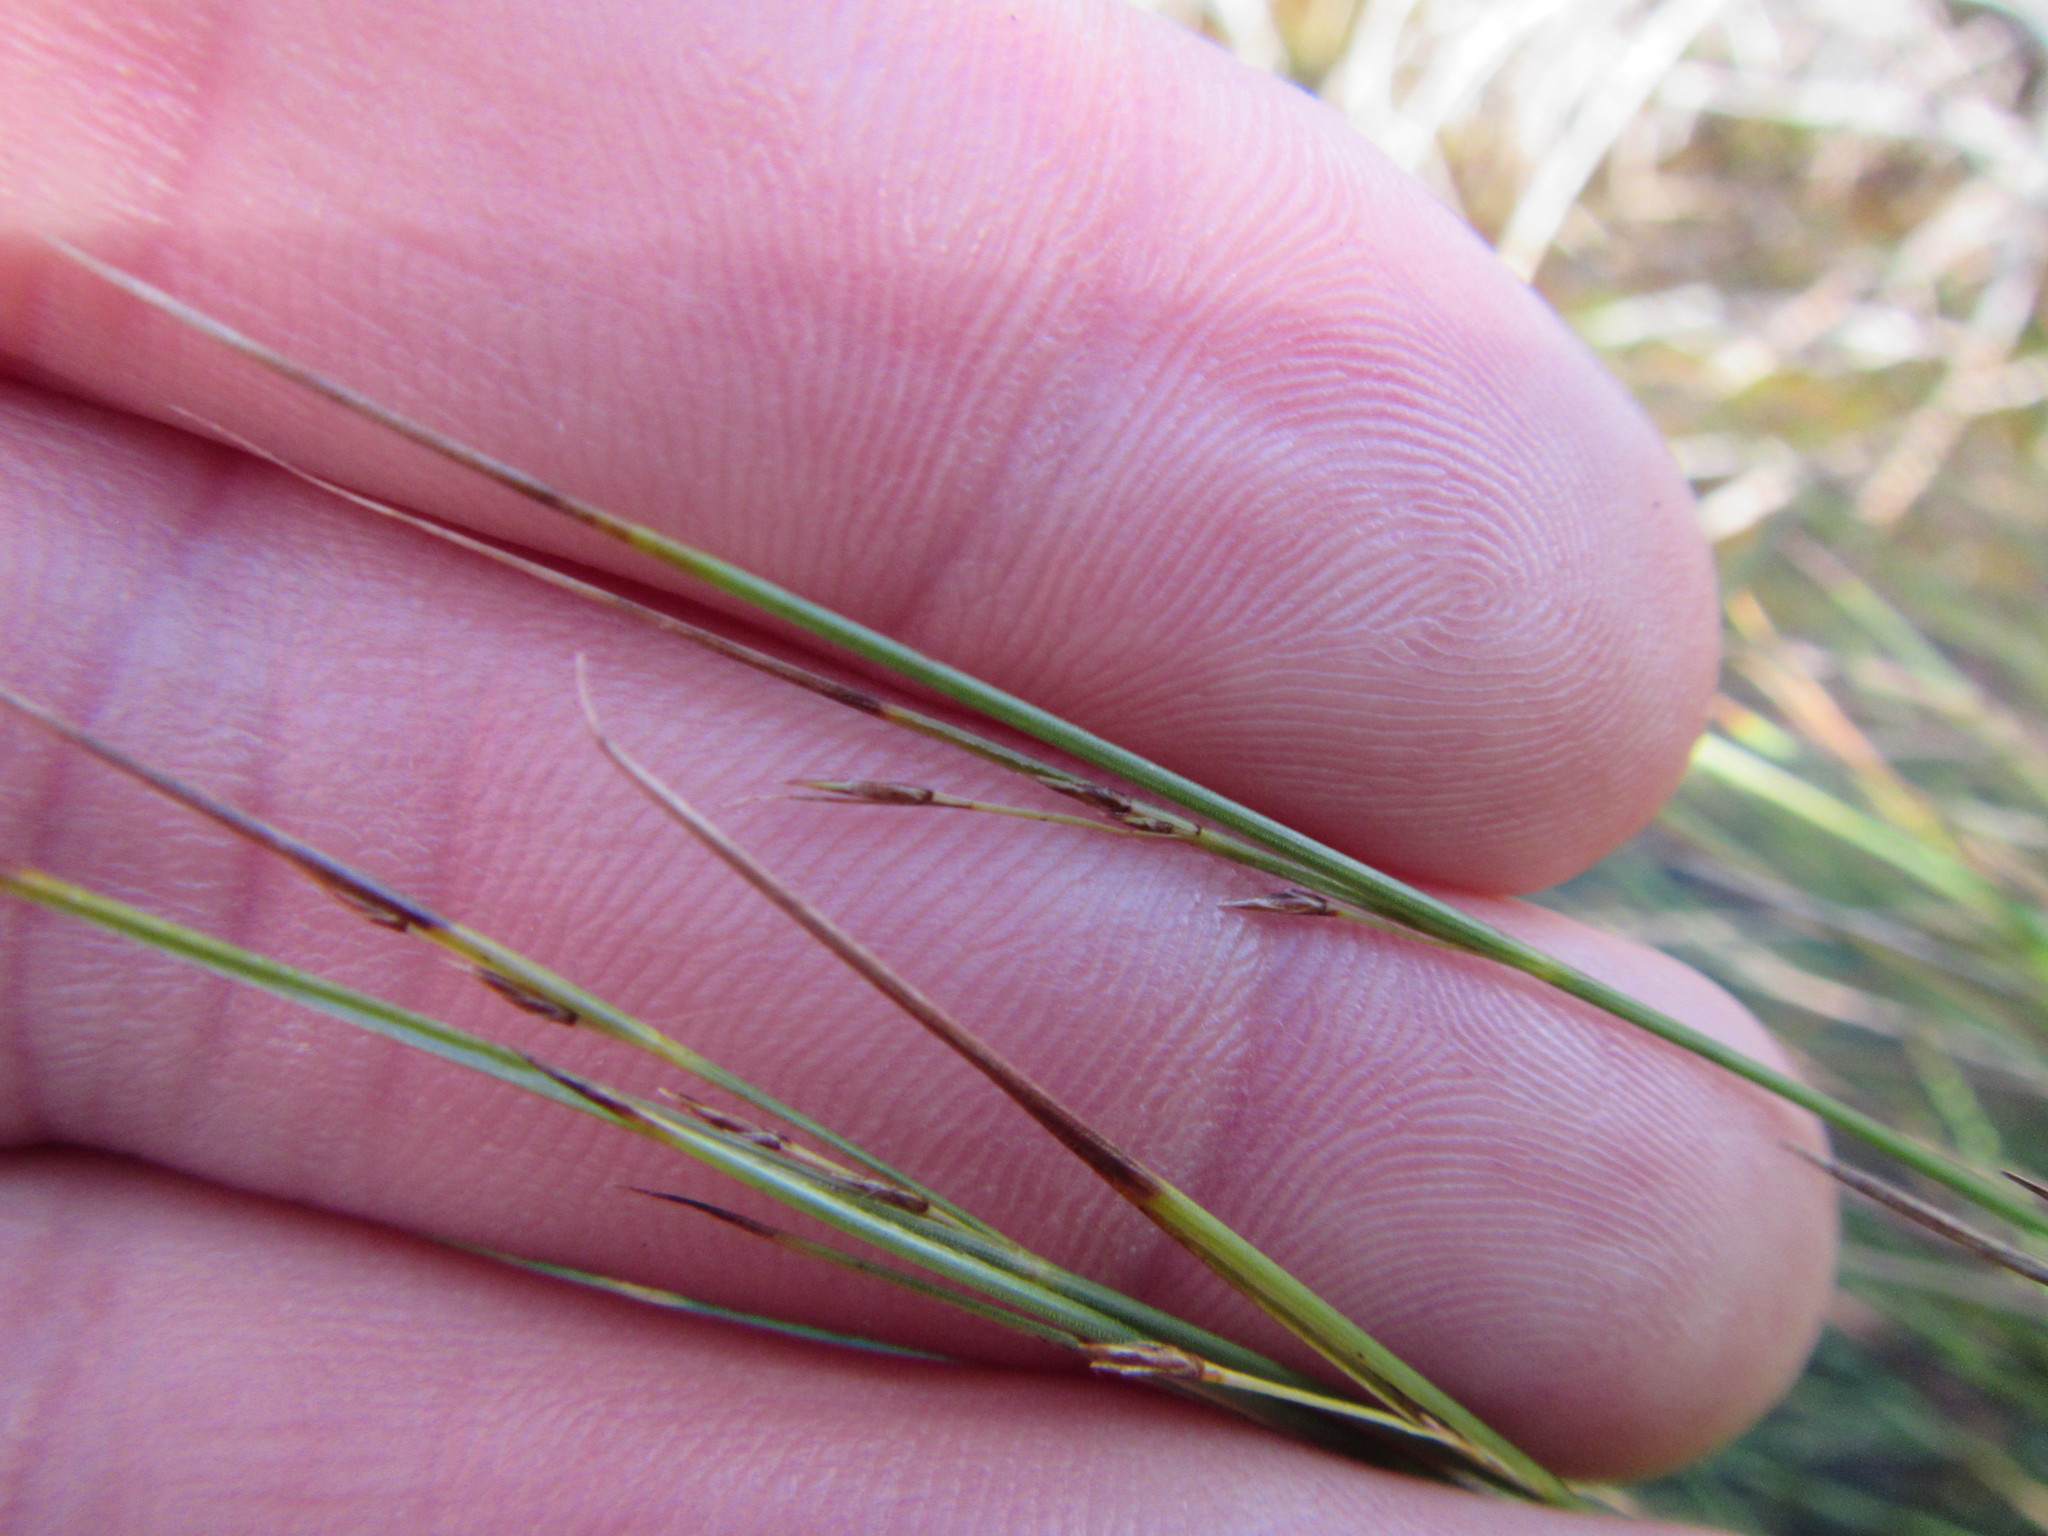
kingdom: Plantae
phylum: Tracheophyta
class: Liliopsida
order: Poales
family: Cyperaceae
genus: Schoenus
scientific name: Schoenus gracillimus
